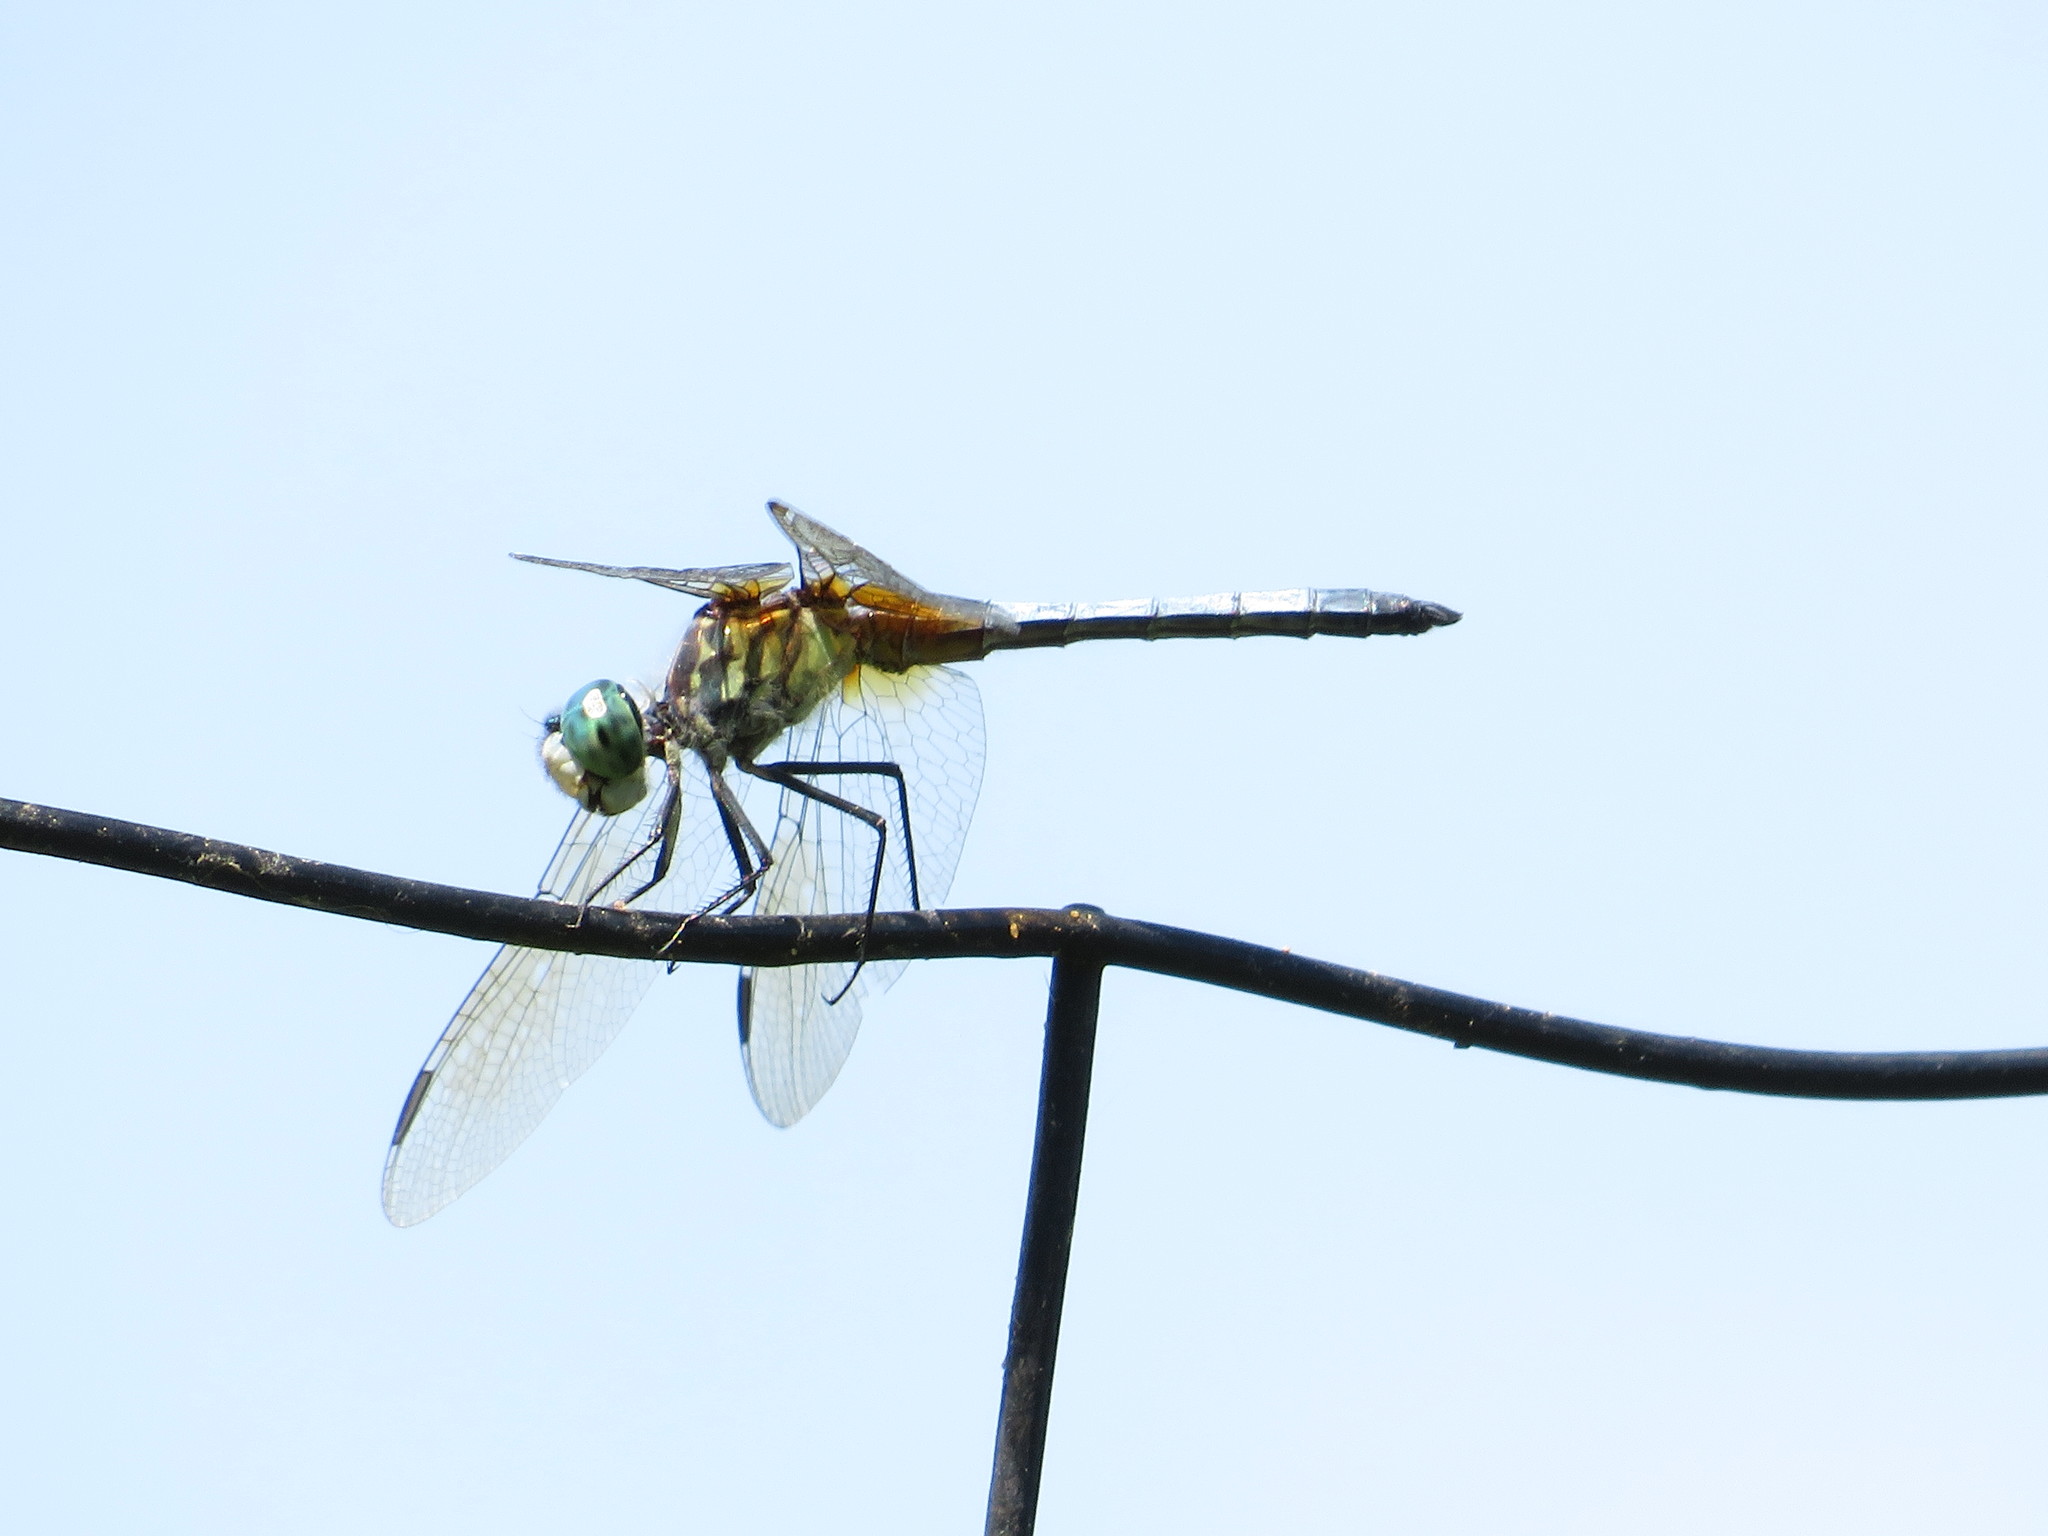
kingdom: Animalia
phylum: Arthropoda
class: Insecta
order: Odonata
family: Libellulidae
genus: Pachydiplax
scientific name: Pachydiplax longipennis
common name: Blue dasher
